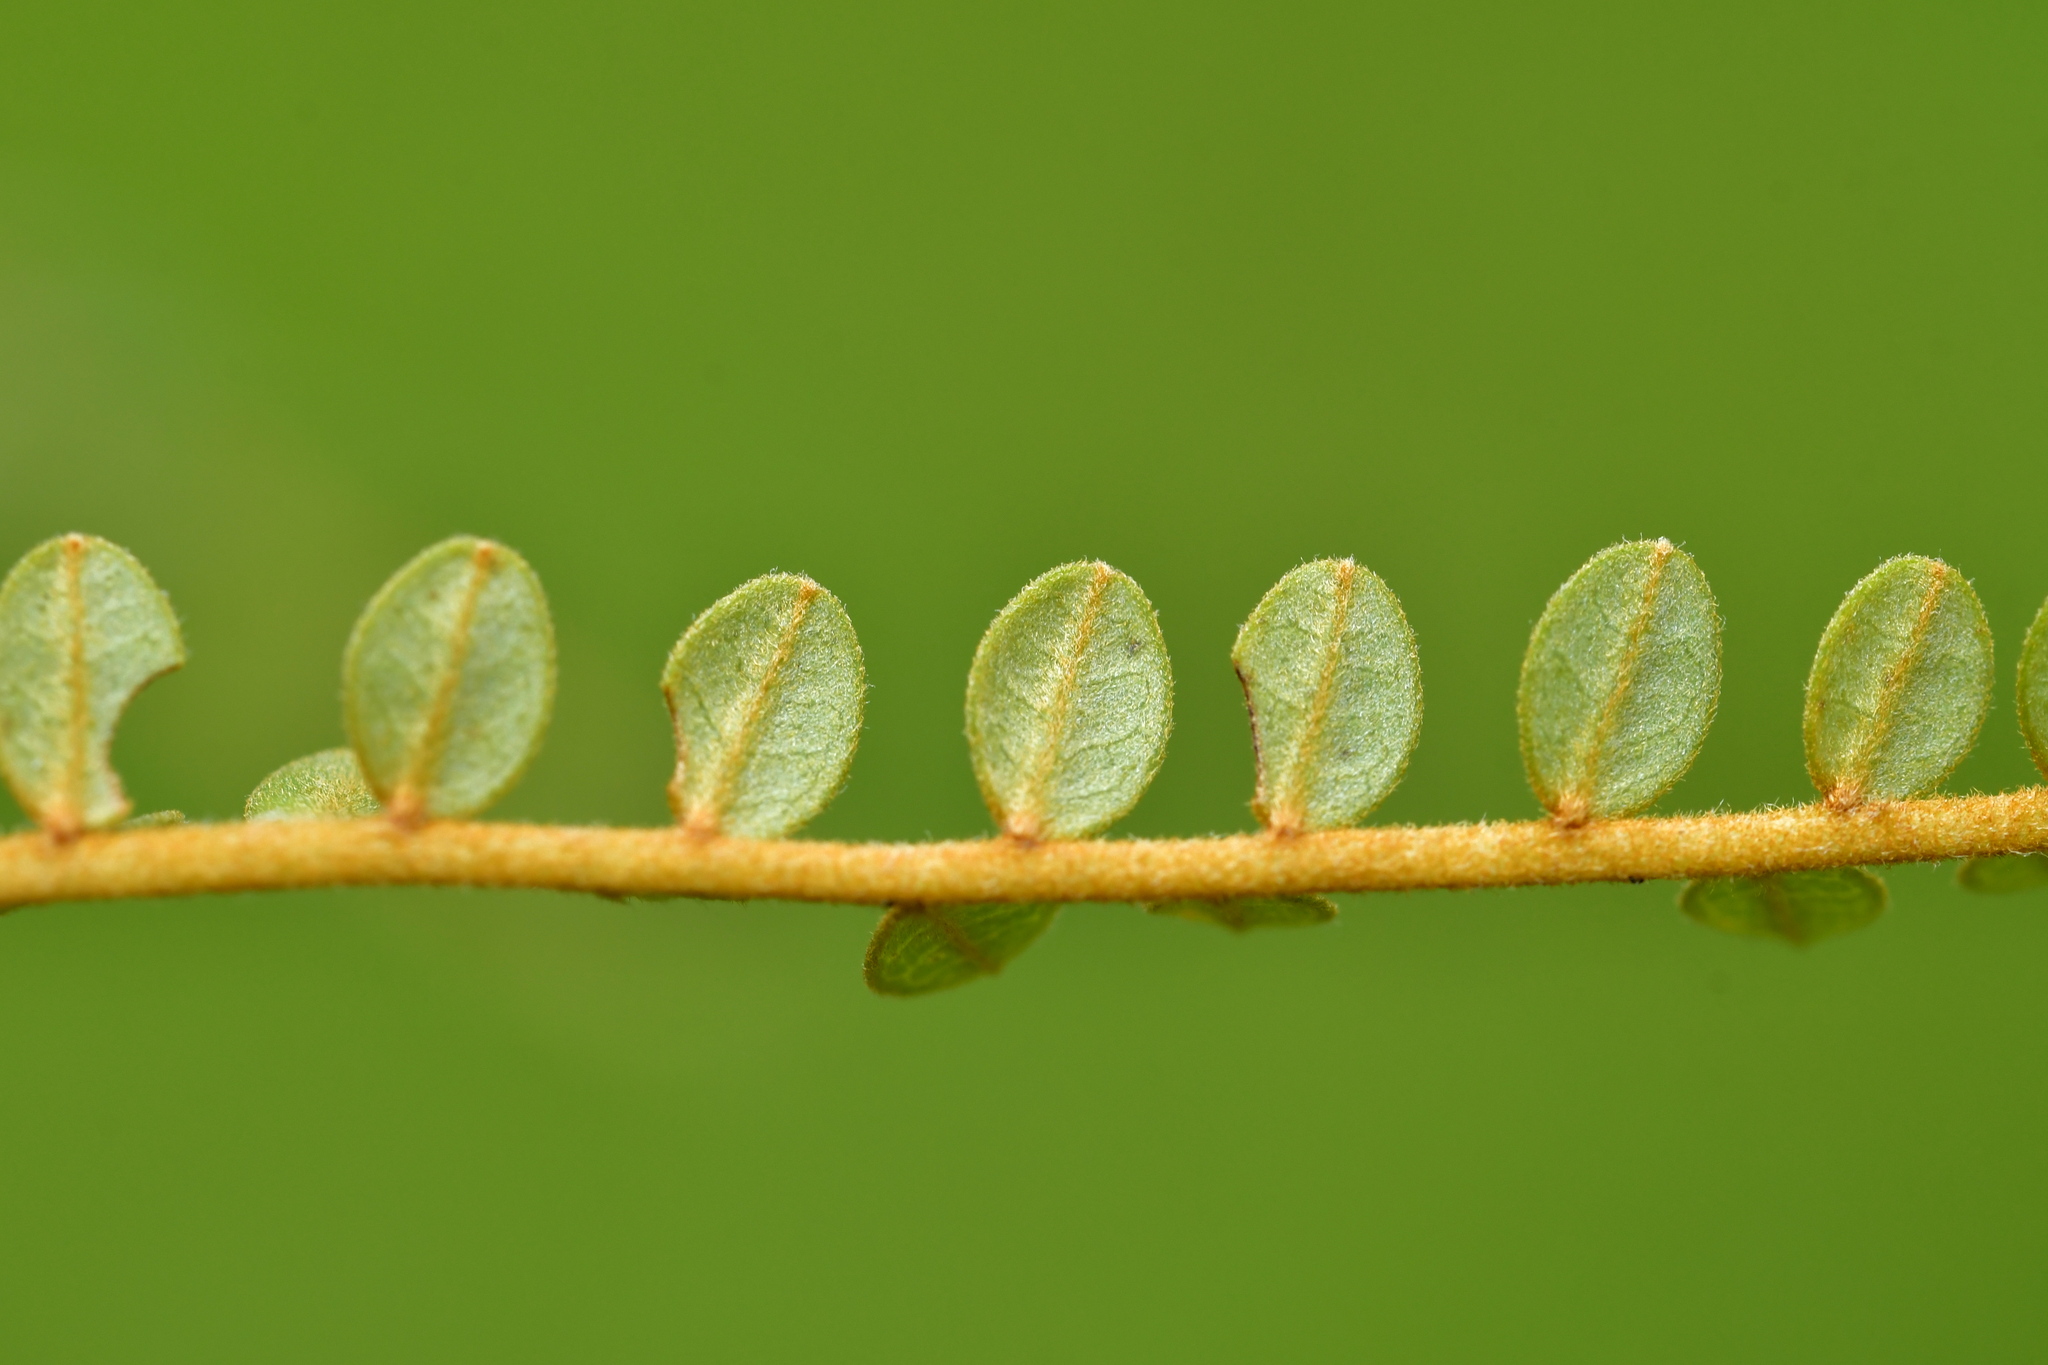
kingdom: Plantae
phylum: Tracheophyta
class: Magnoliopsida
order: Fabales
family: Fabaceae
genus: Sophora
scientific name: Sophora microphylla
